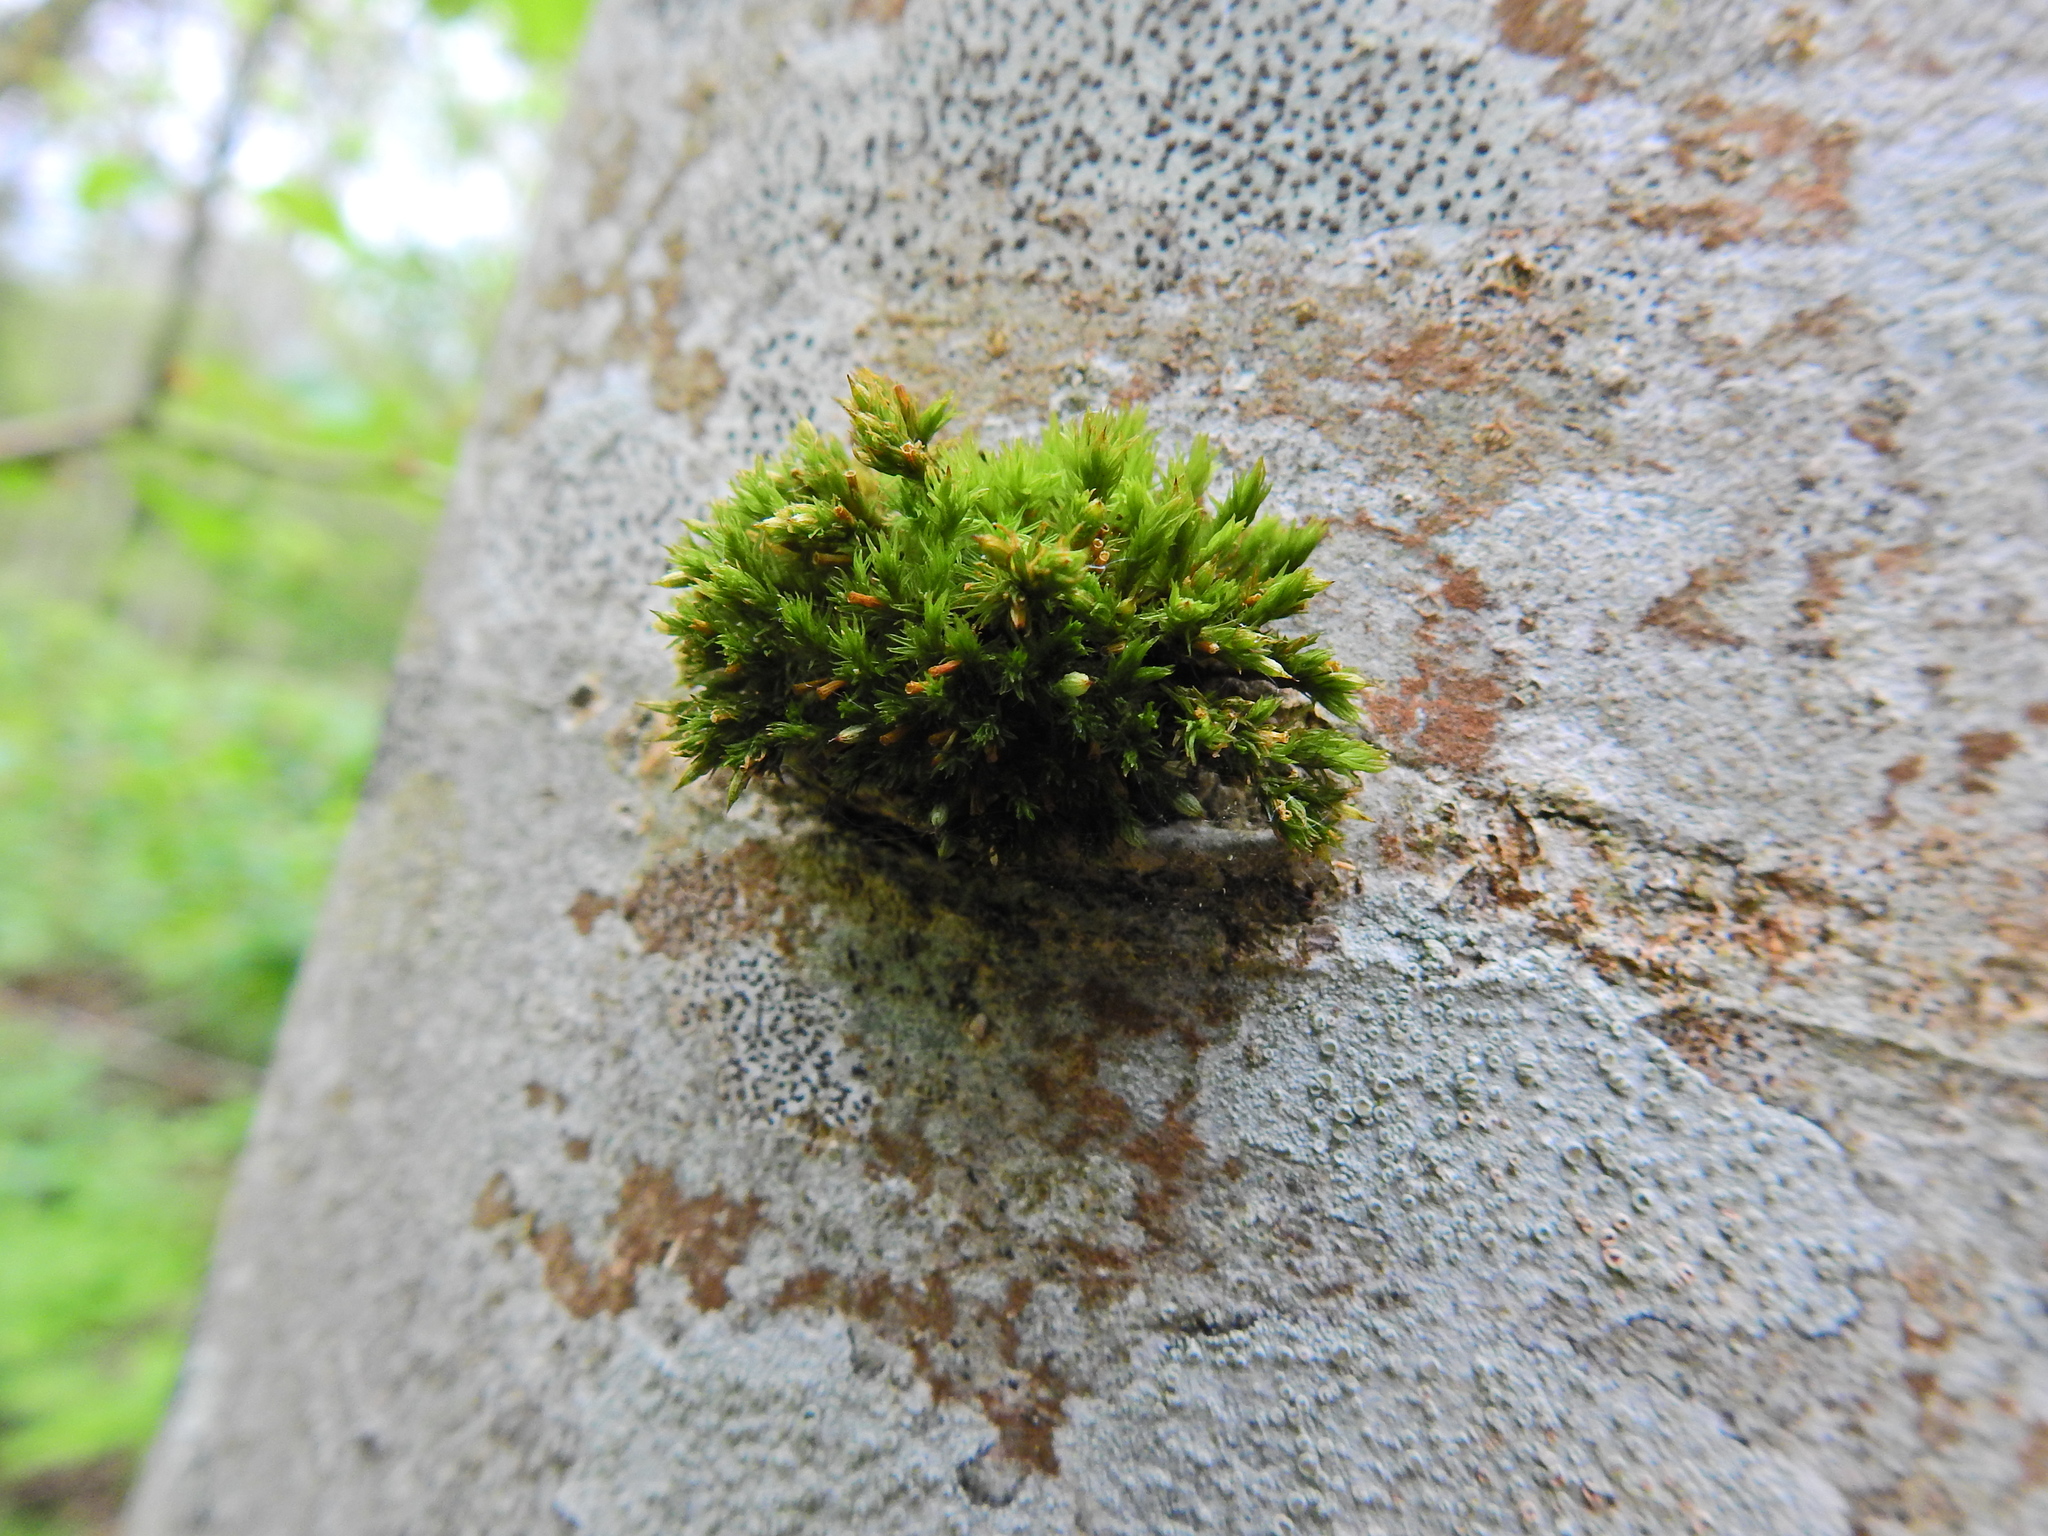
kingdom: Plantae
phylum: Bryophyta
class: Bryopsida
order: Orthotrichales
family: Orthotrichaceae
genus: Orthotrichum
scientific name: Orthotrichum stramineum
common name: Straw bristle-moss
